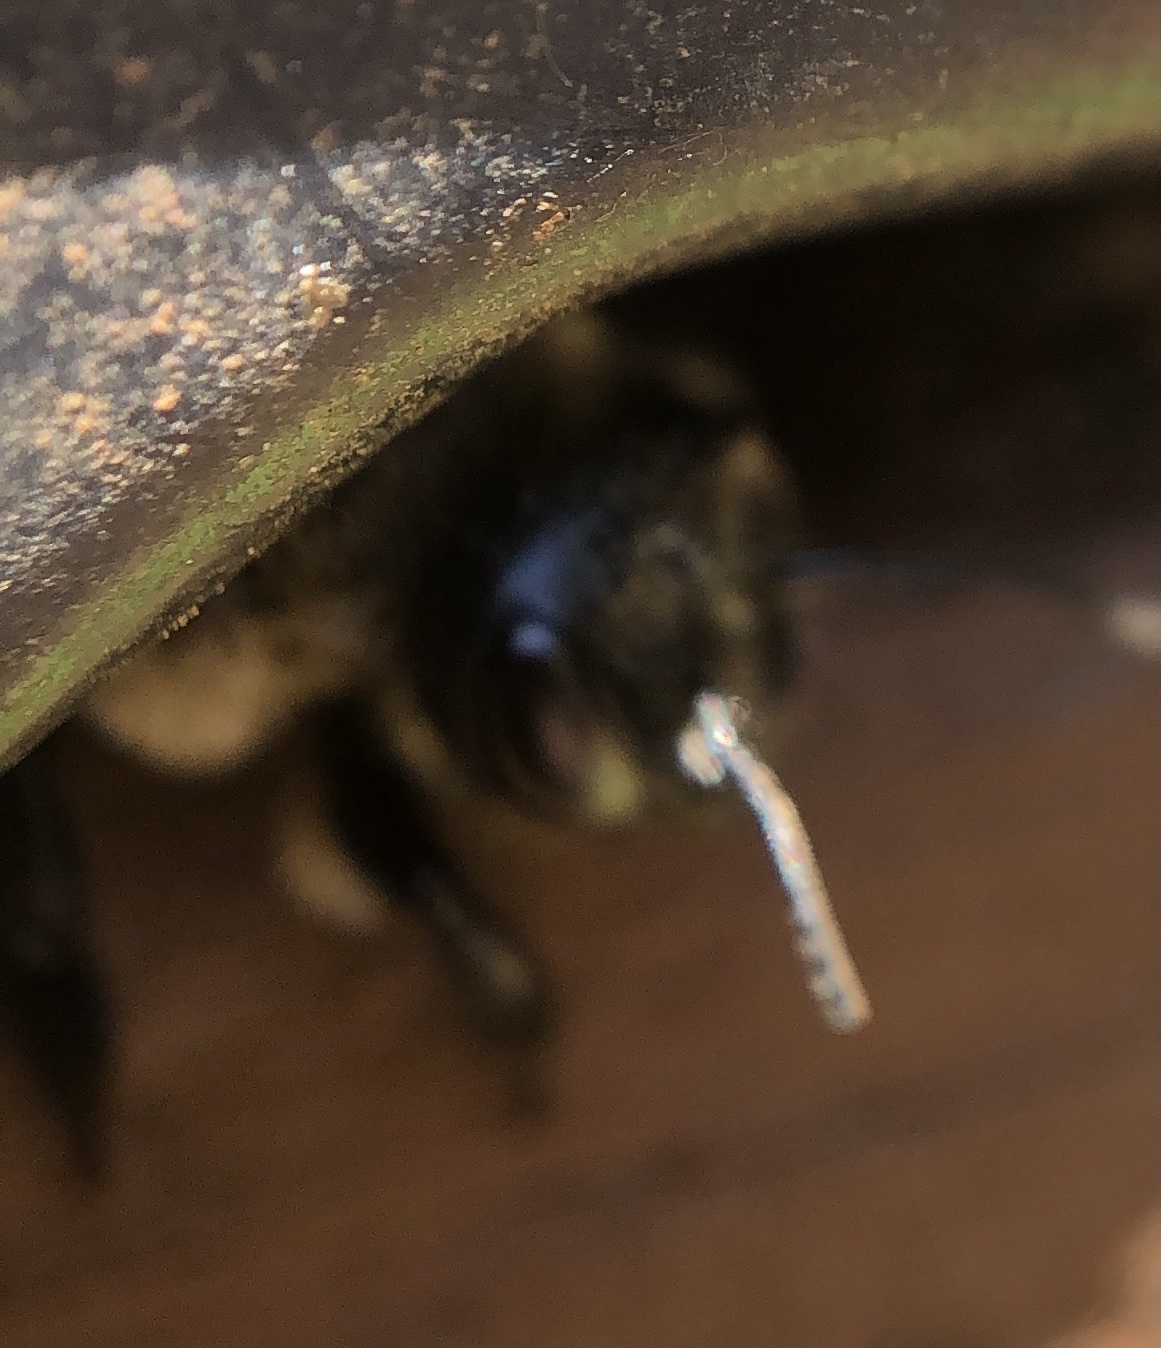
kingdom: Animalia
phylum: Arthropoda
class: Insecta
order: Hymenoptera
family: Megachilidae
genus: Megachile
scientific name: Megachile mucida
